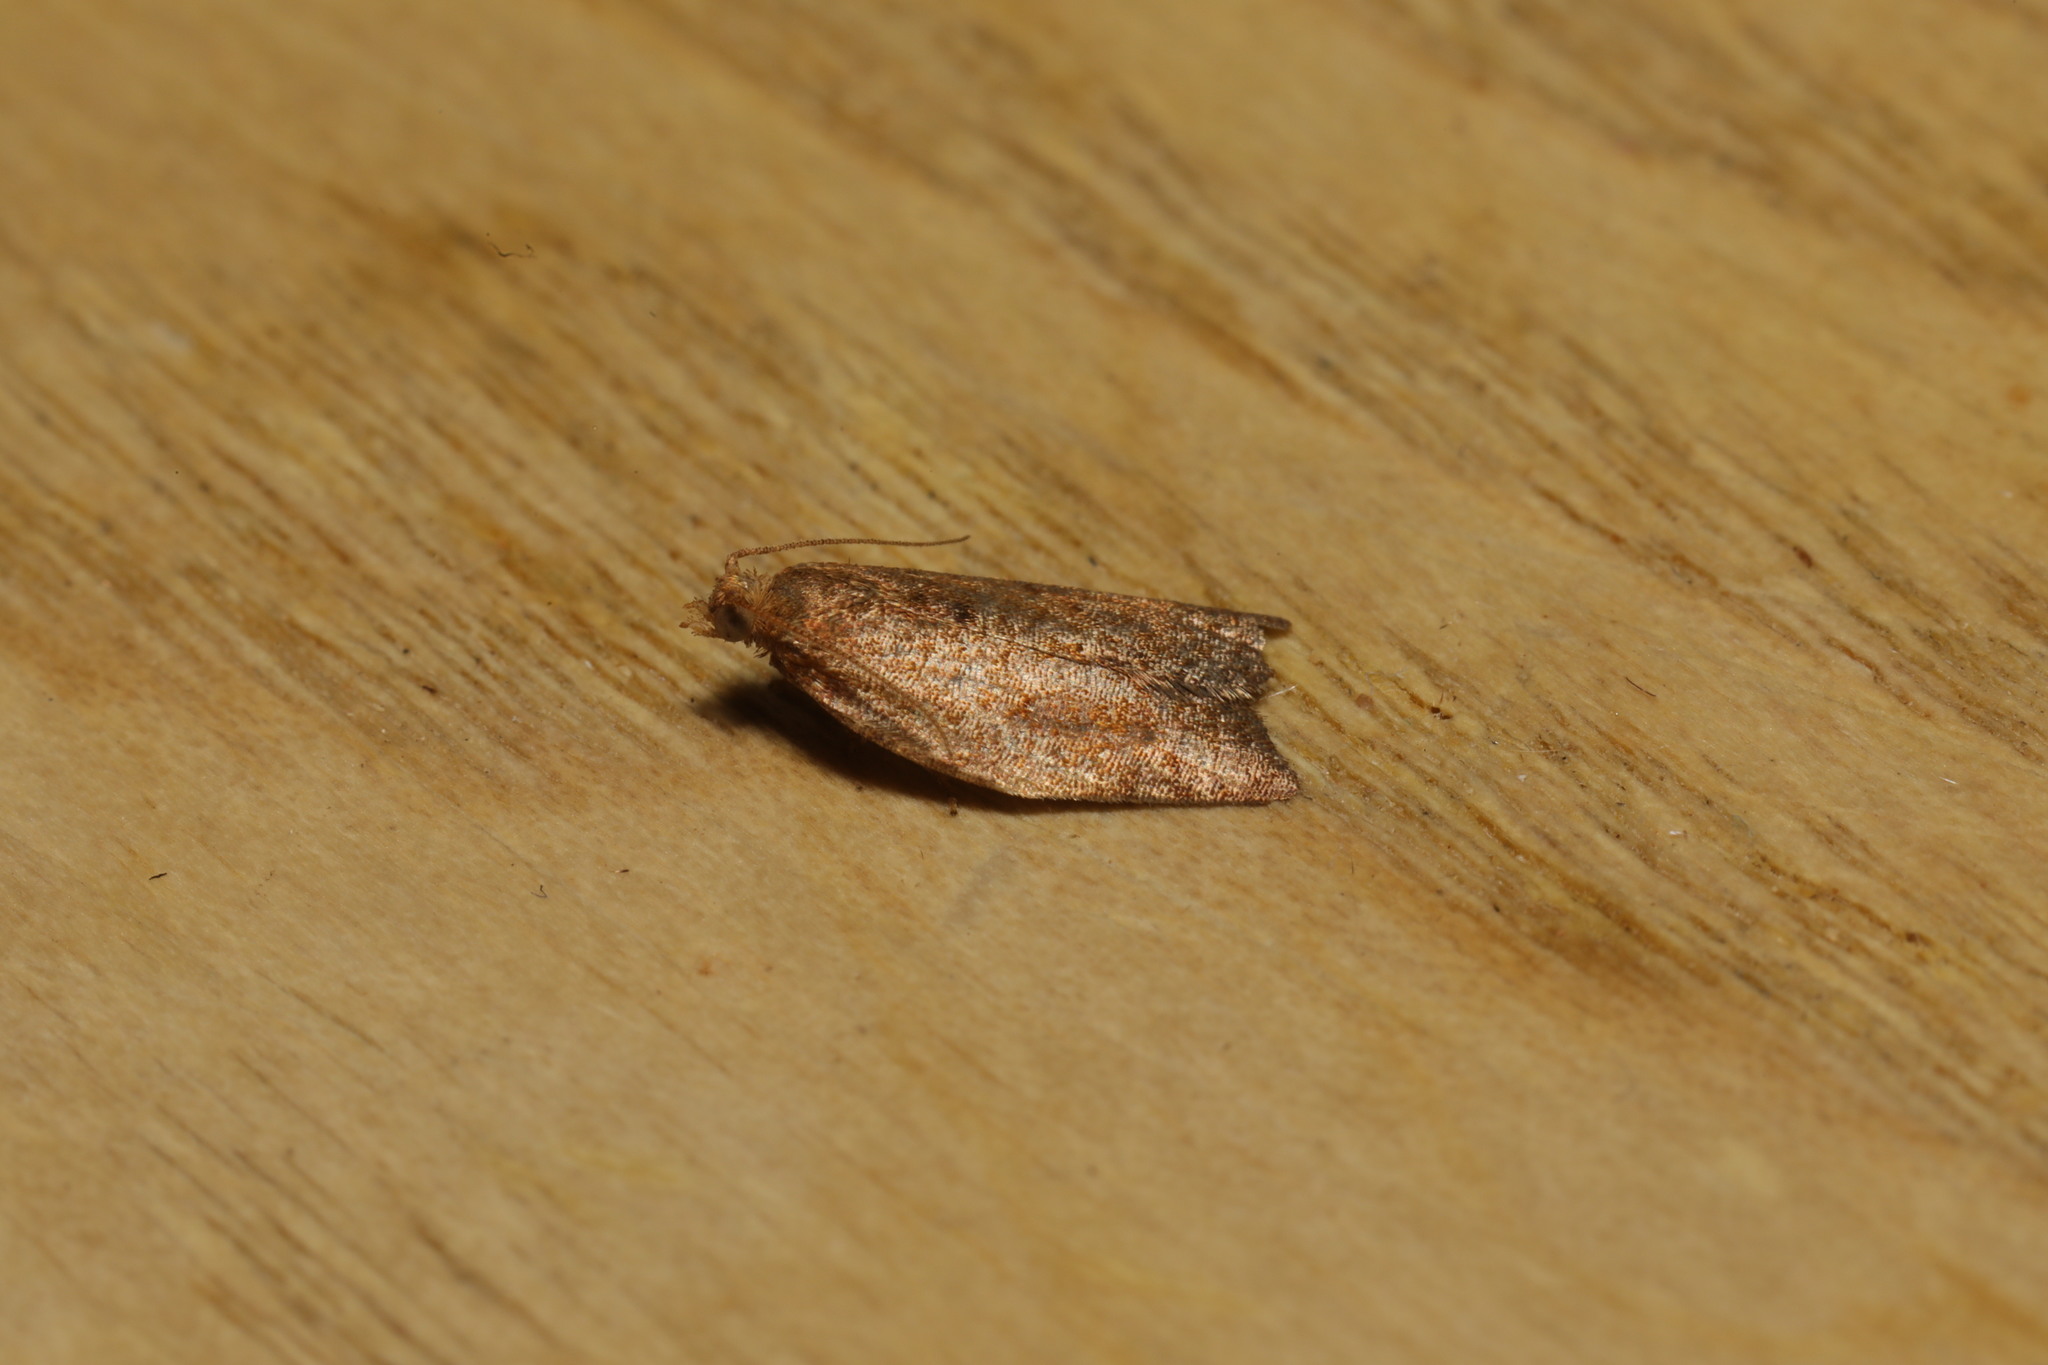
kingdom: Animalia
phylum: Arthropoda
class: Insecta
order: Lepidoptera
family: Tortricidae
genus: Clepsis
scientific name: Clepsis consimilana
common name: Privet tortrix
